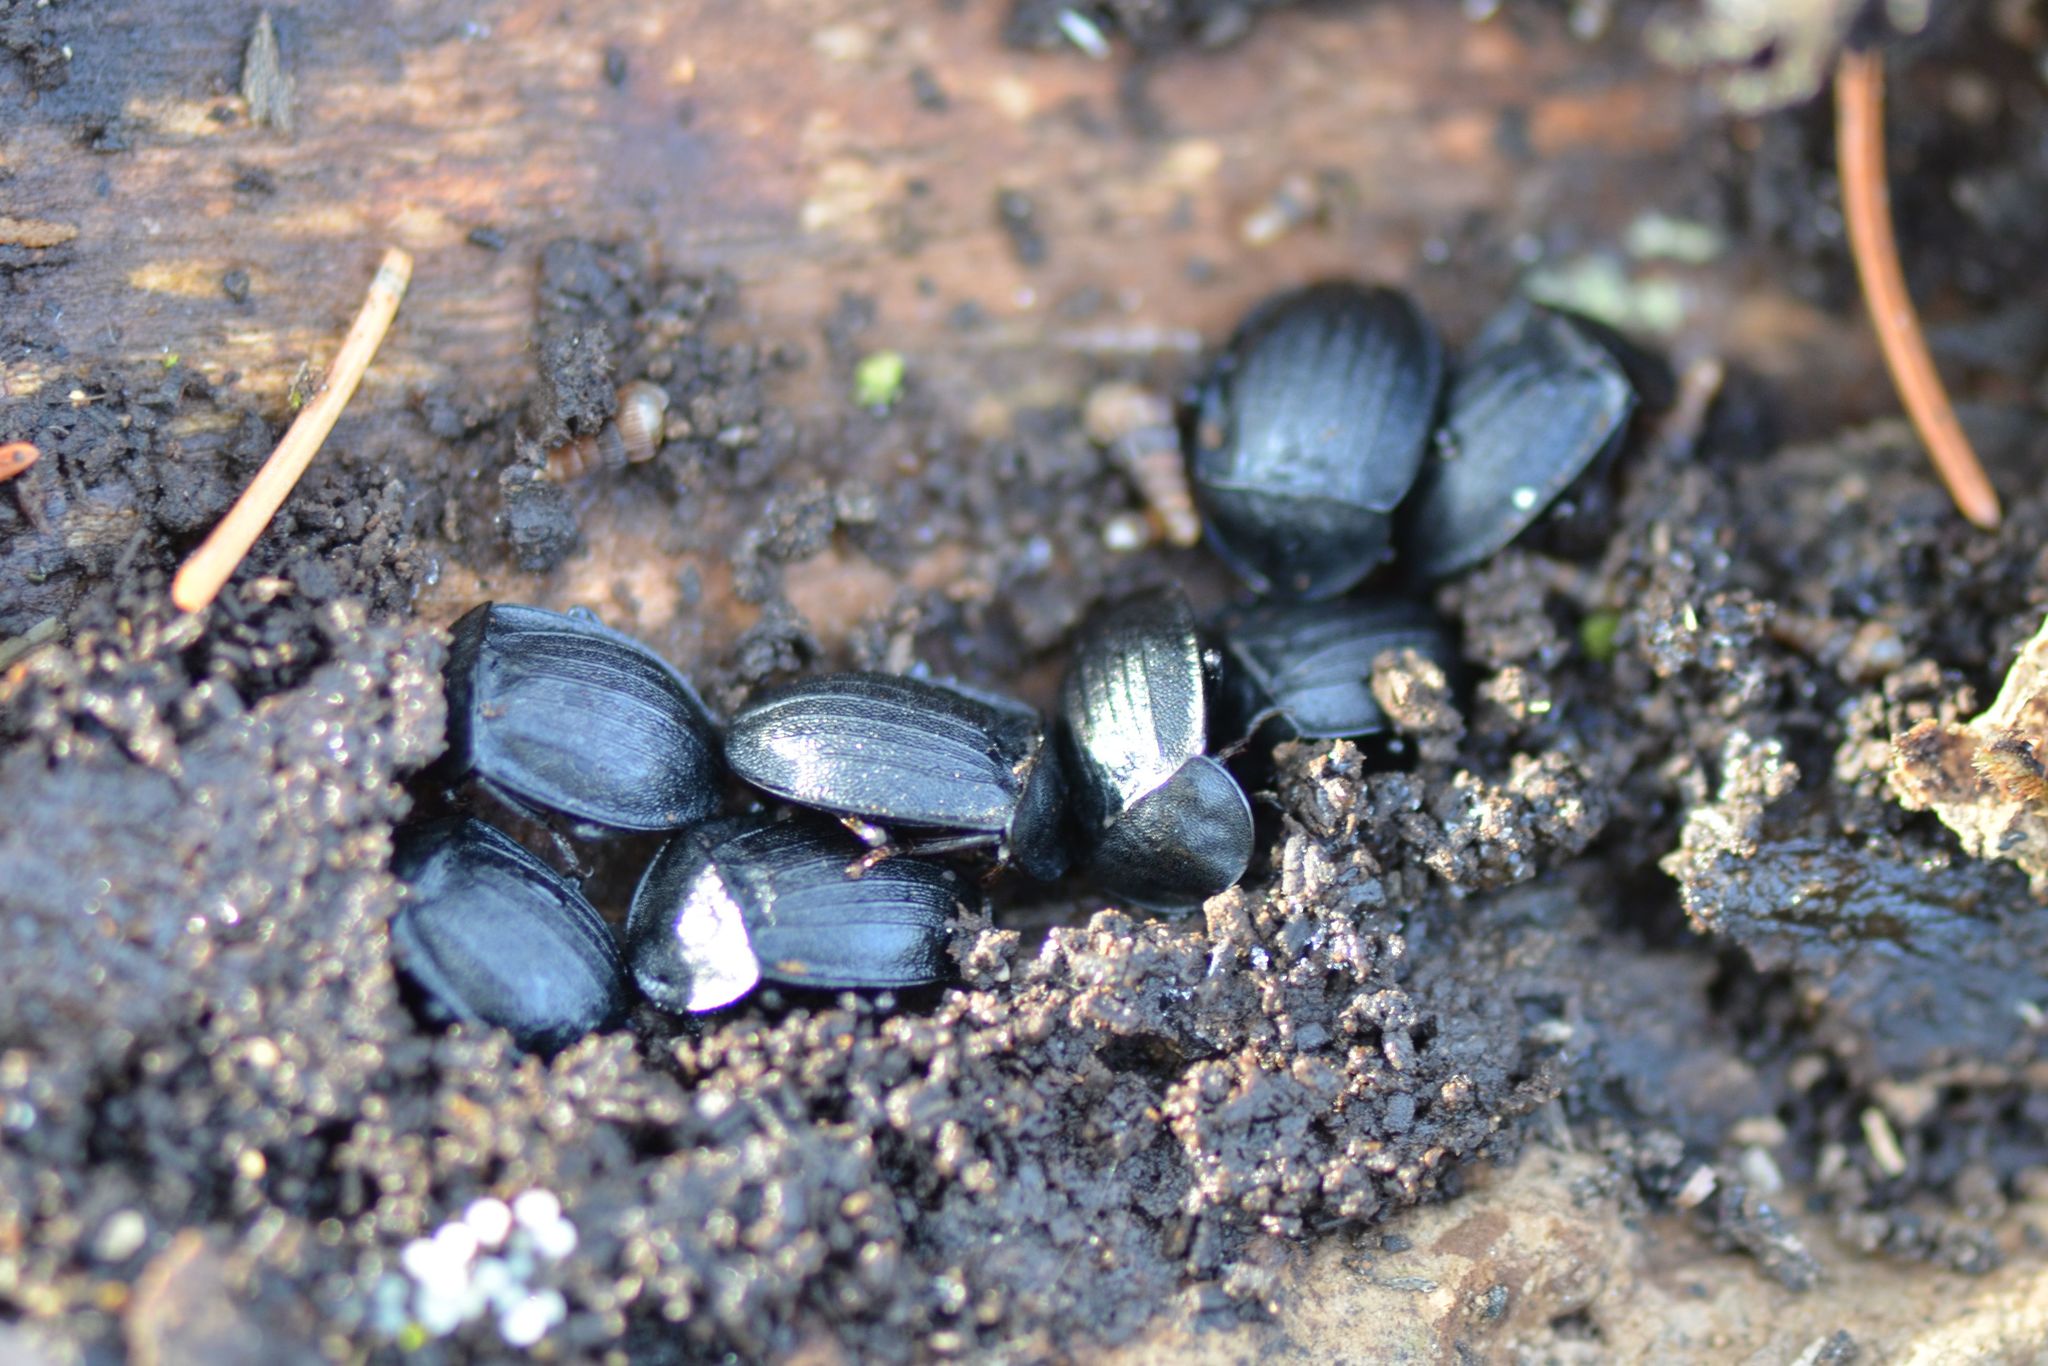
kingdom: Animalia
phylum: Arthropoda
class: Insecta
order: Coleoptera
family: Staphylinidae
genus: Silpha
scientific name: Silpha atrata
